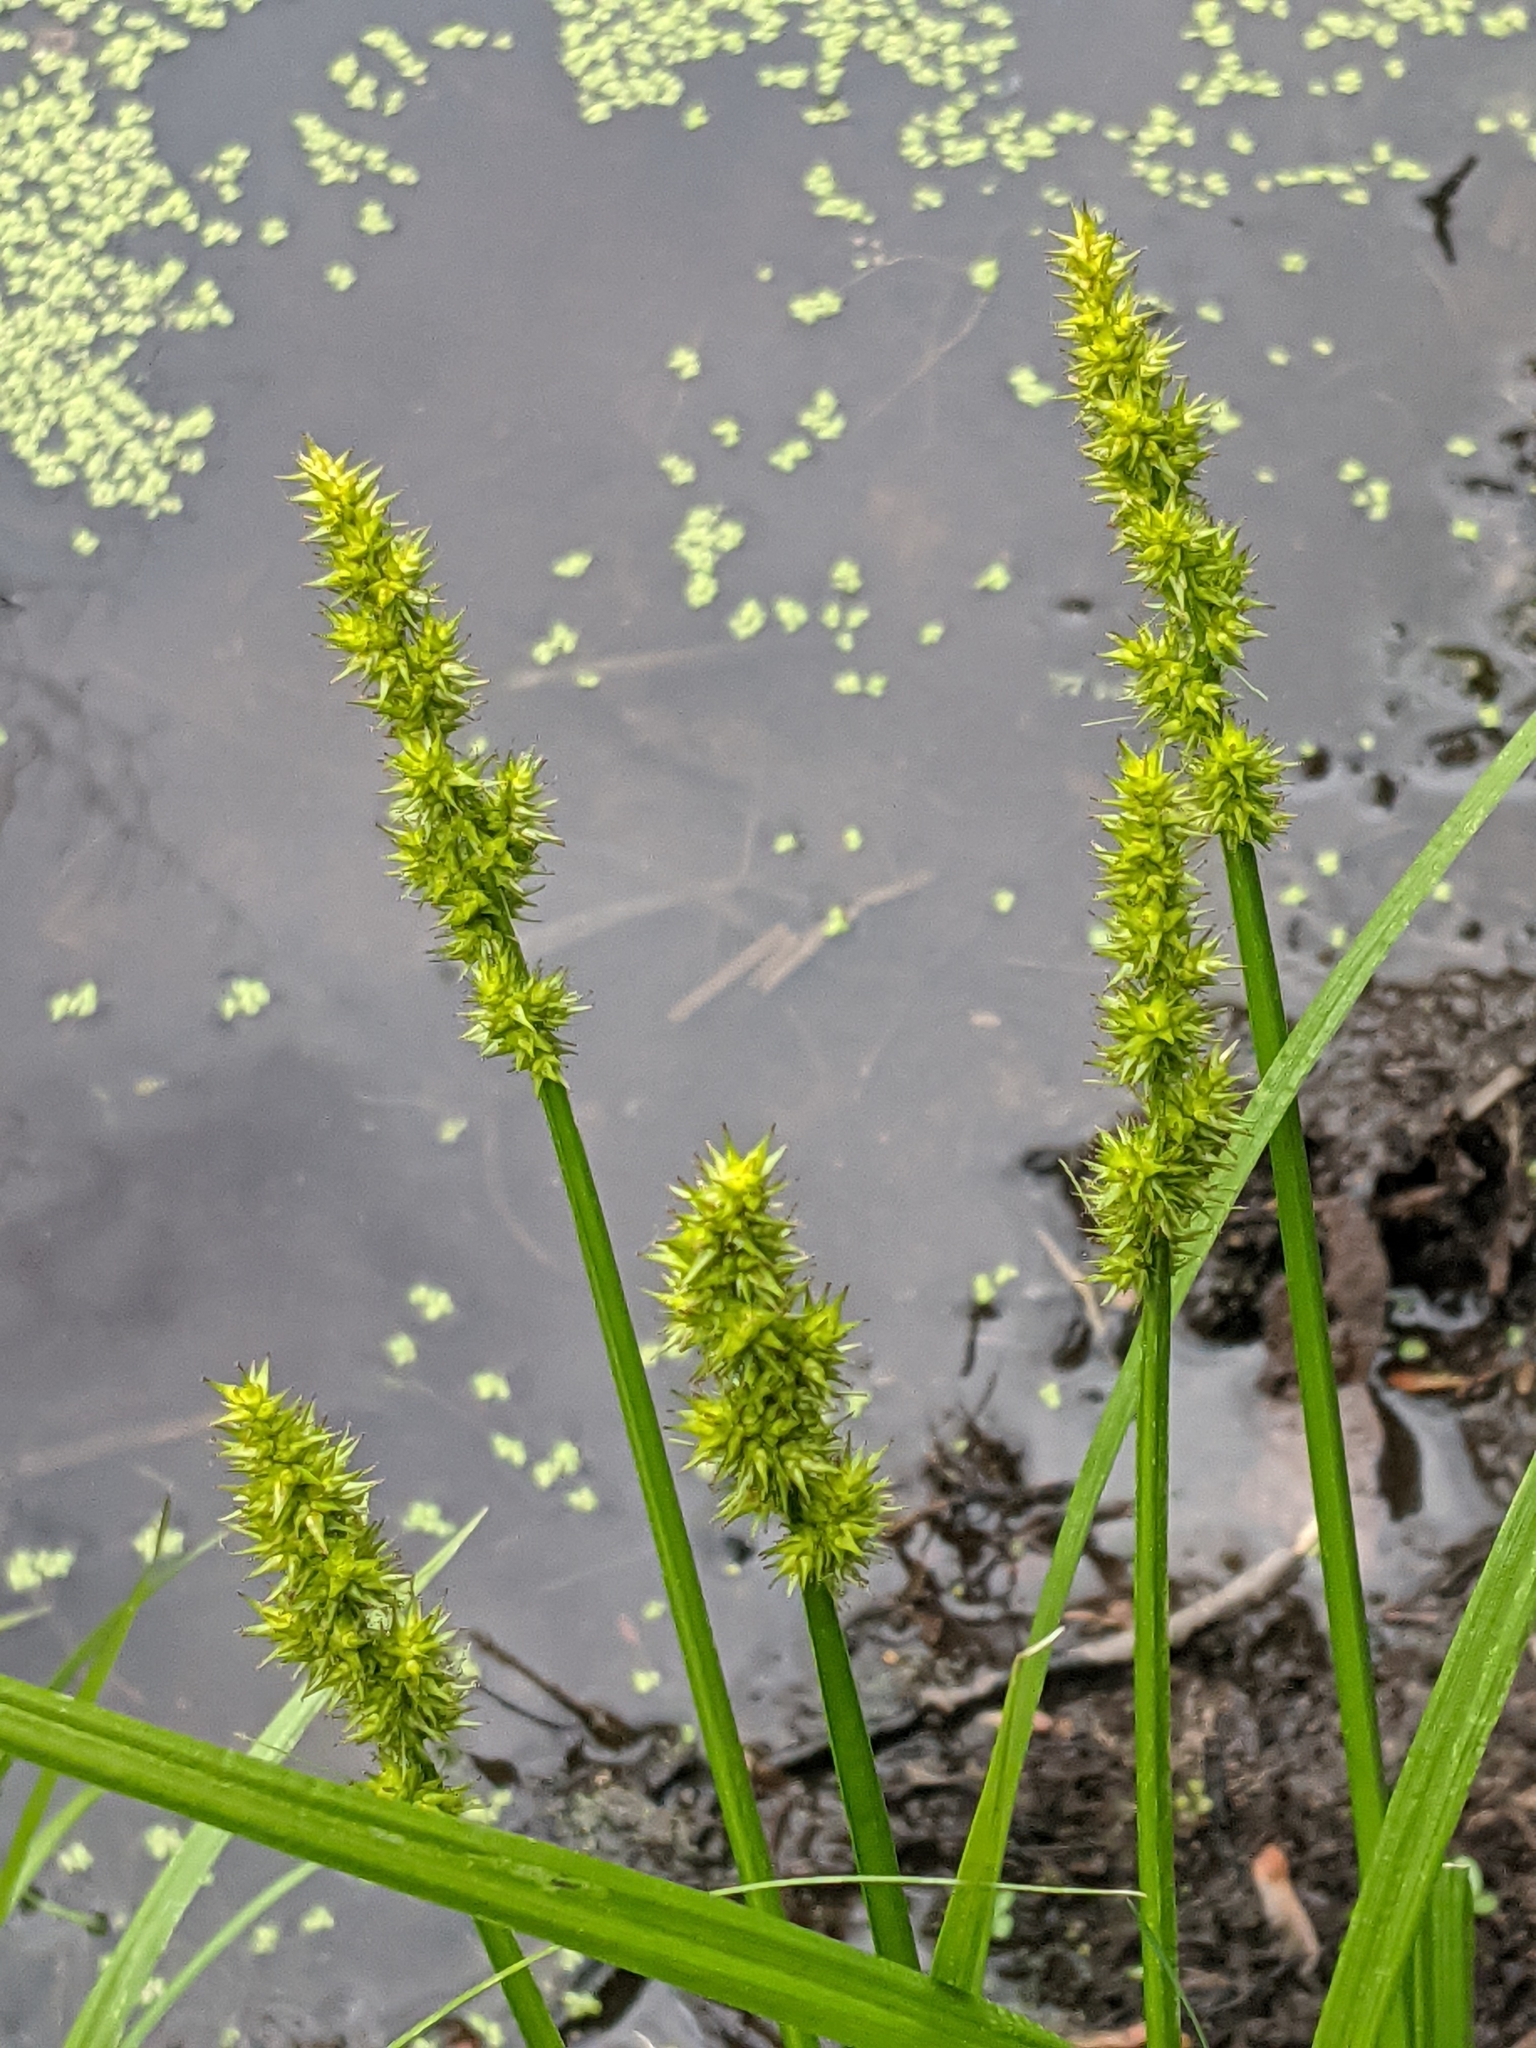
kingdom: Plantae
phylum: Tracheophyta
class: Liliopsida
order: Poales
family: Cyperaceae
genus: Carex
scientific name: Carex stipata
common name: Awl-fruited sedge
